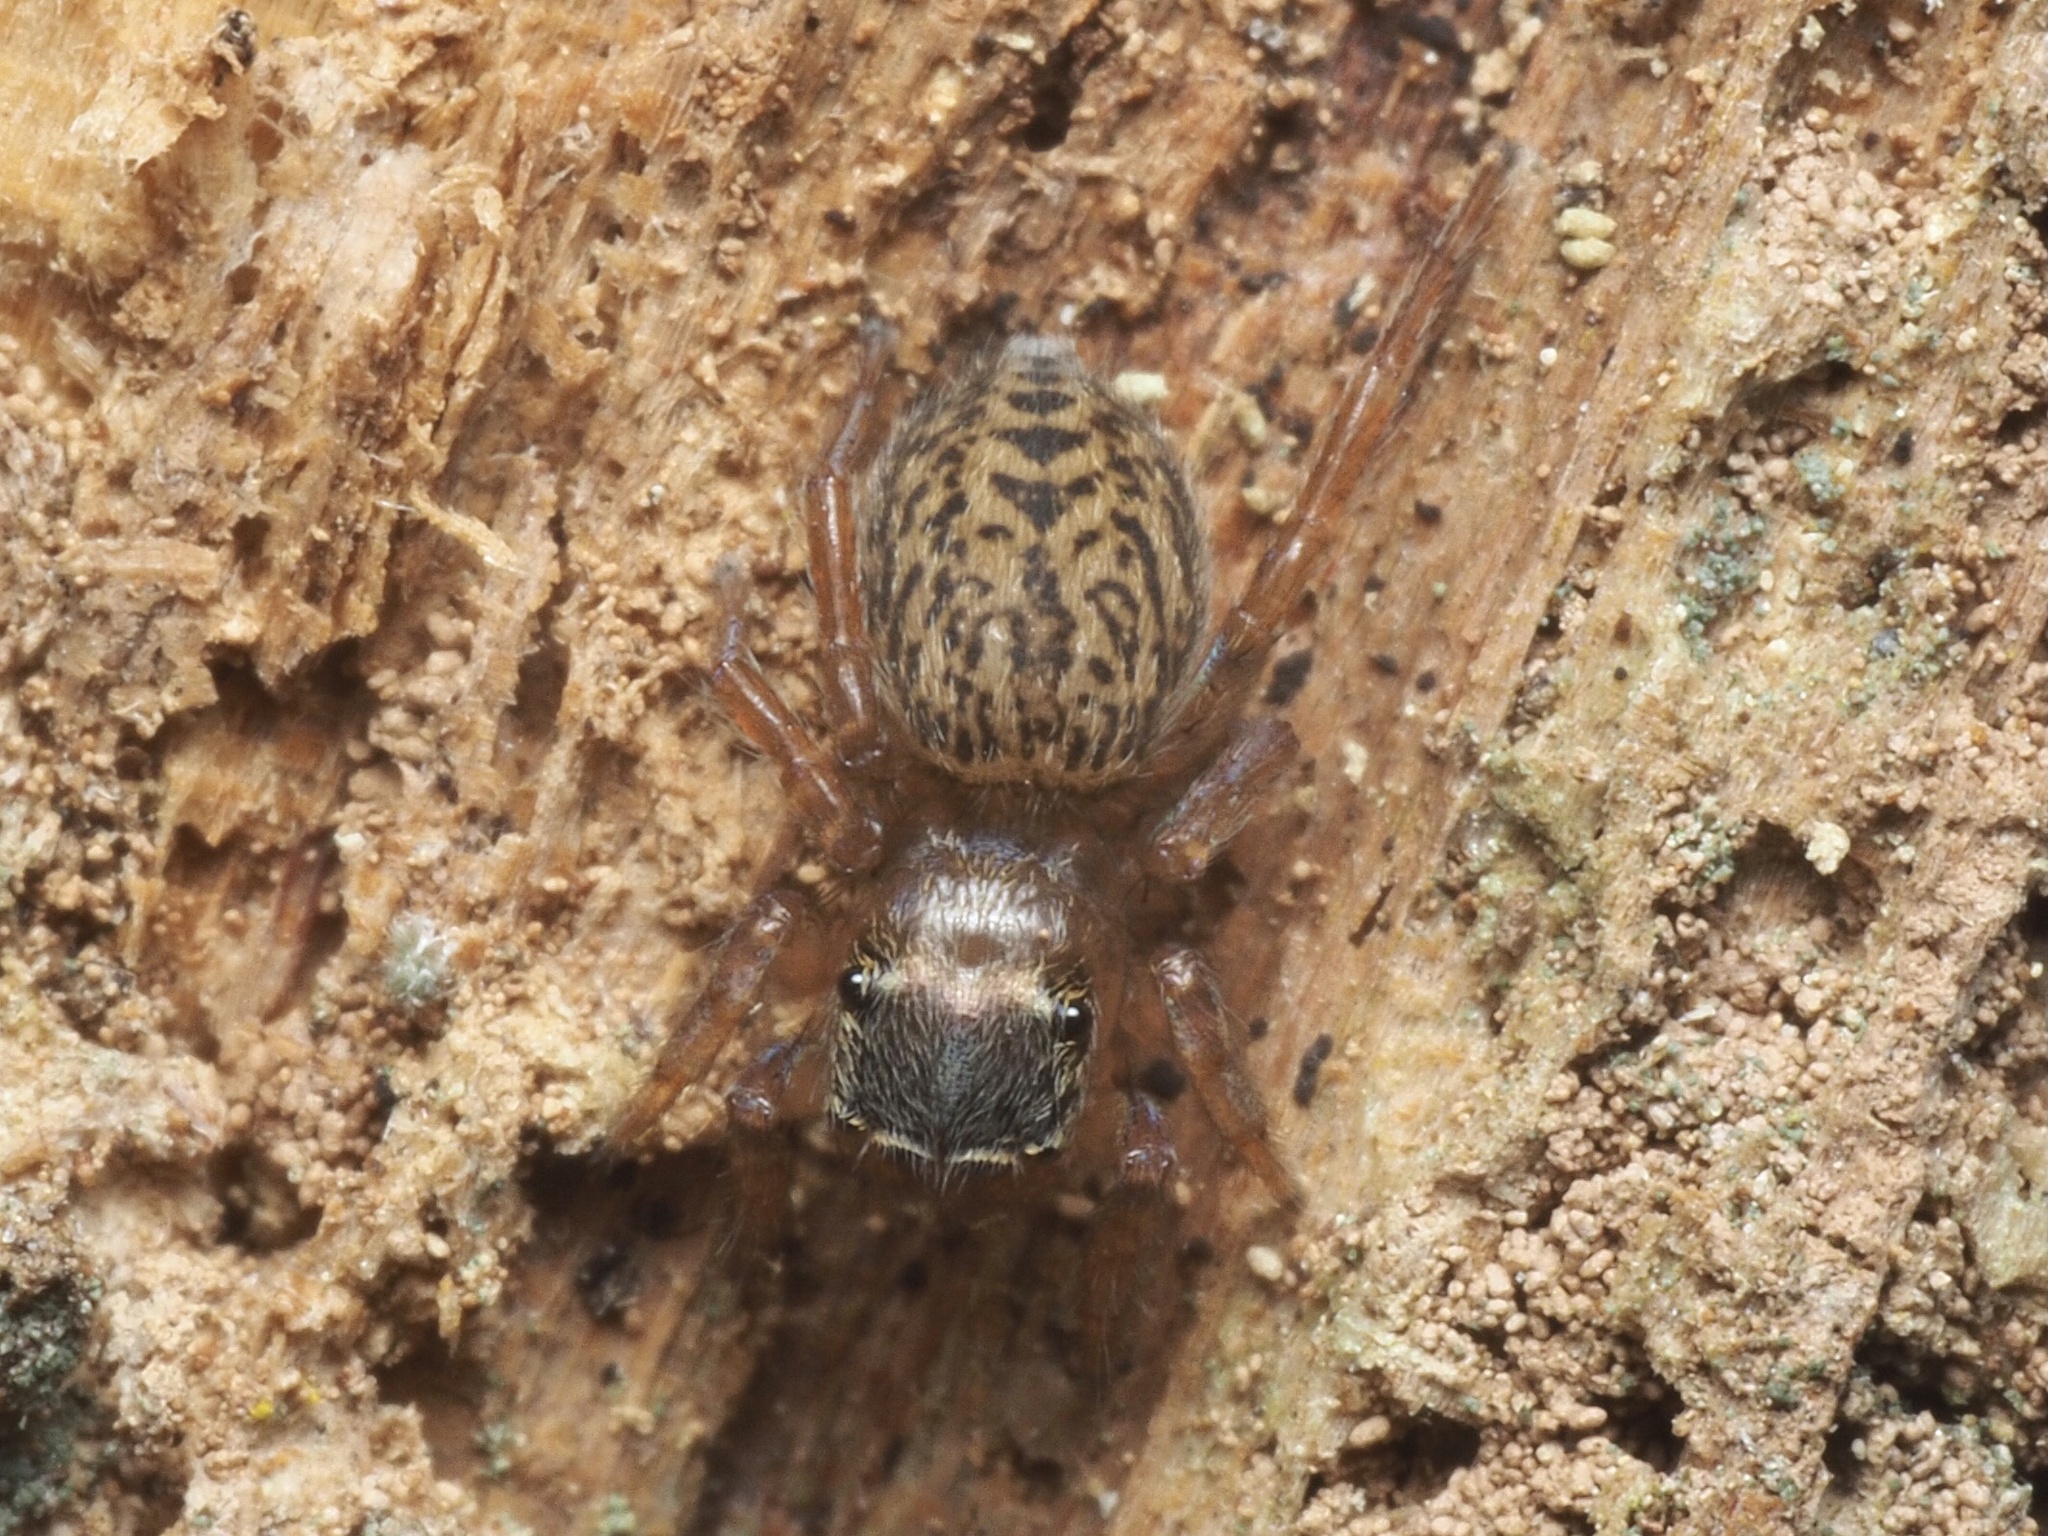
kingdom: Animalia
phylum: Arthropoda
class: Arachnida
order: Araneae
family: Salticidae
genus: Euophrys
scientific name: Euophrys frontalis
